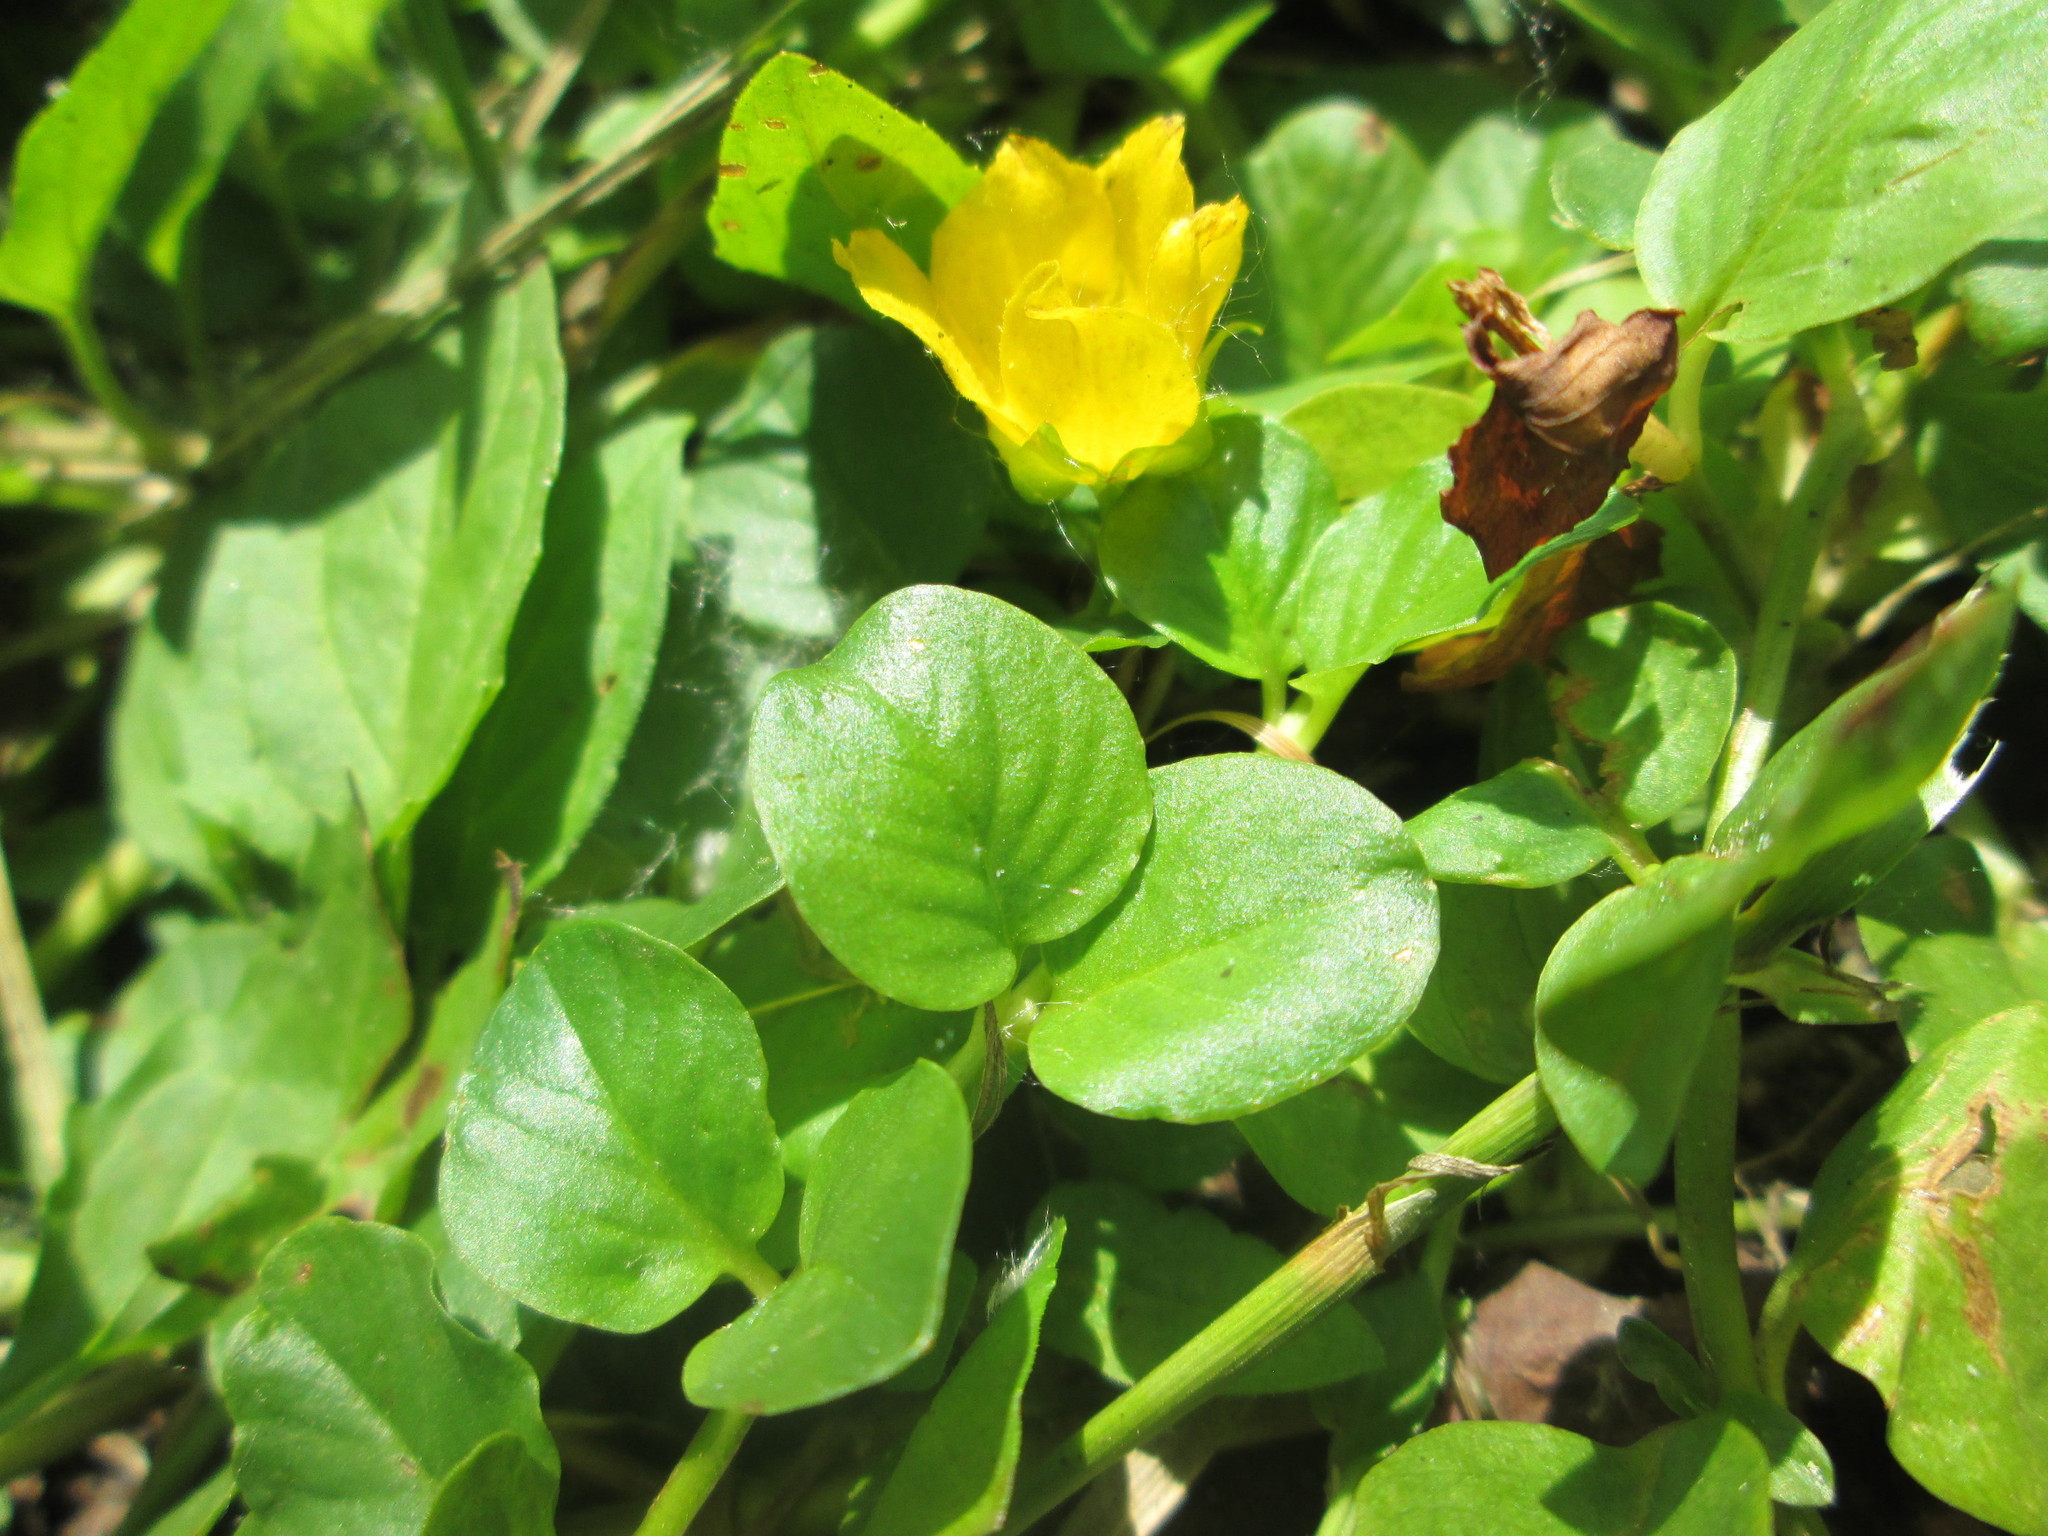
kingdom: Plantae
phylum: Tracheophyta
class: Magnoliopsida
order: Ericales
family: Primulaceae
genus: Lysimachia
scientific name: Lysimachia nummularia
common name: Moneywort
